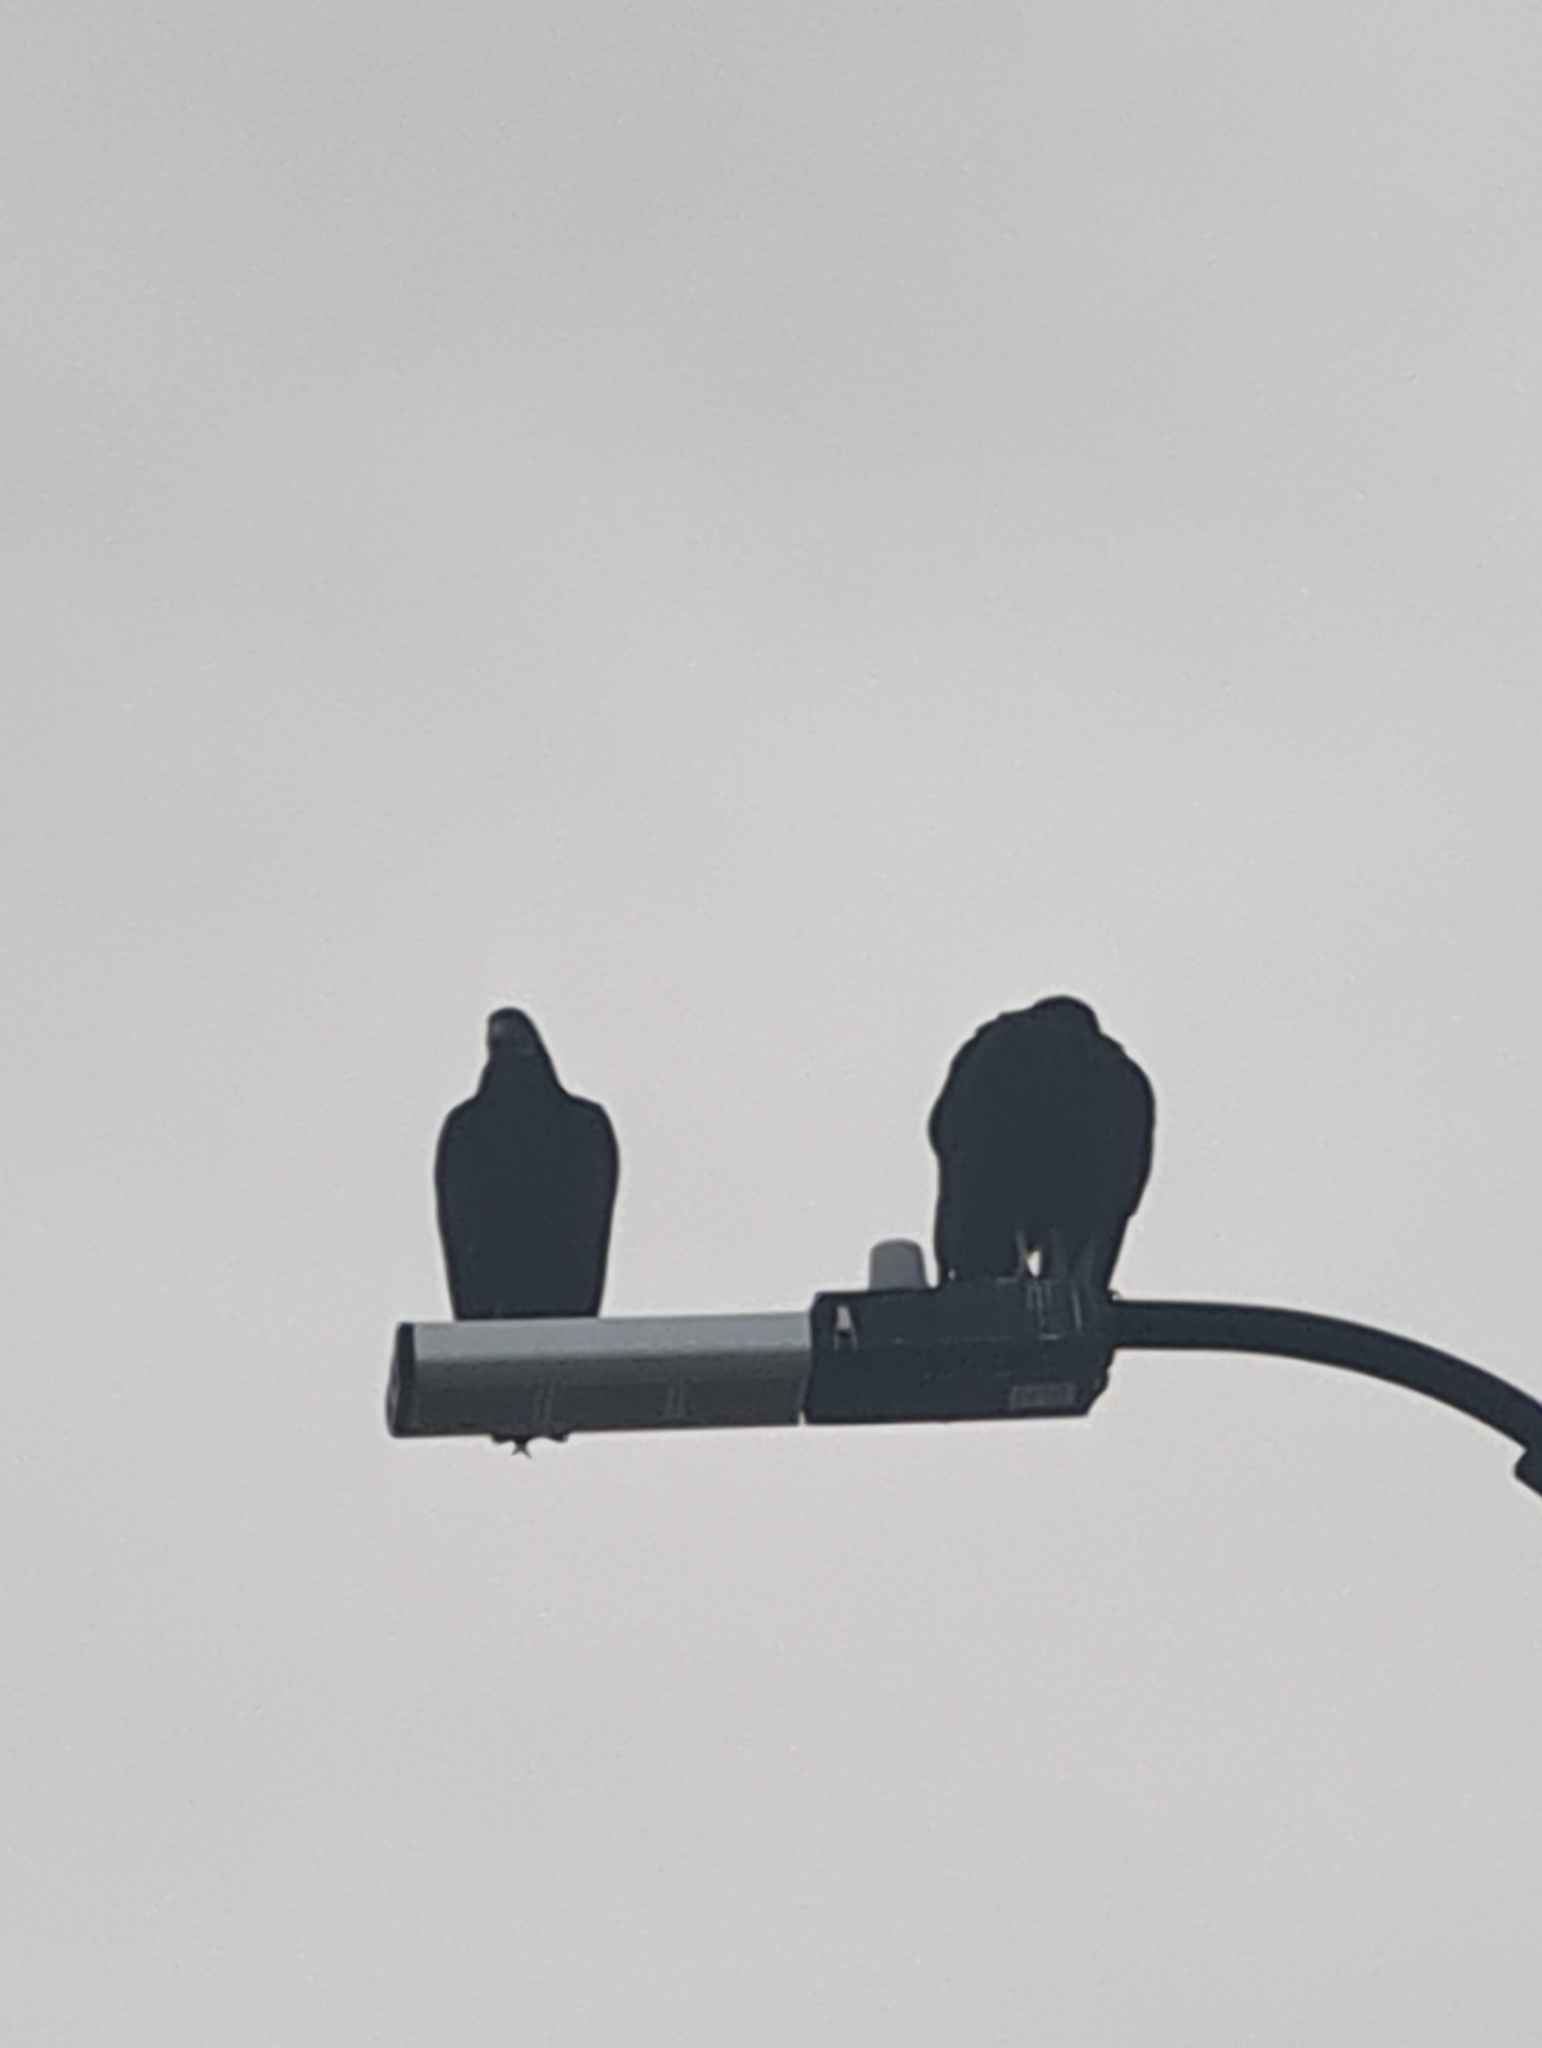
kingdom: Animalia
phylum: Chordata
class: Aves
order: Accipitriformes
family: Cathartidae
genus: Coragyps
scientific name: Coragyps atratus
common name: Black vulture
